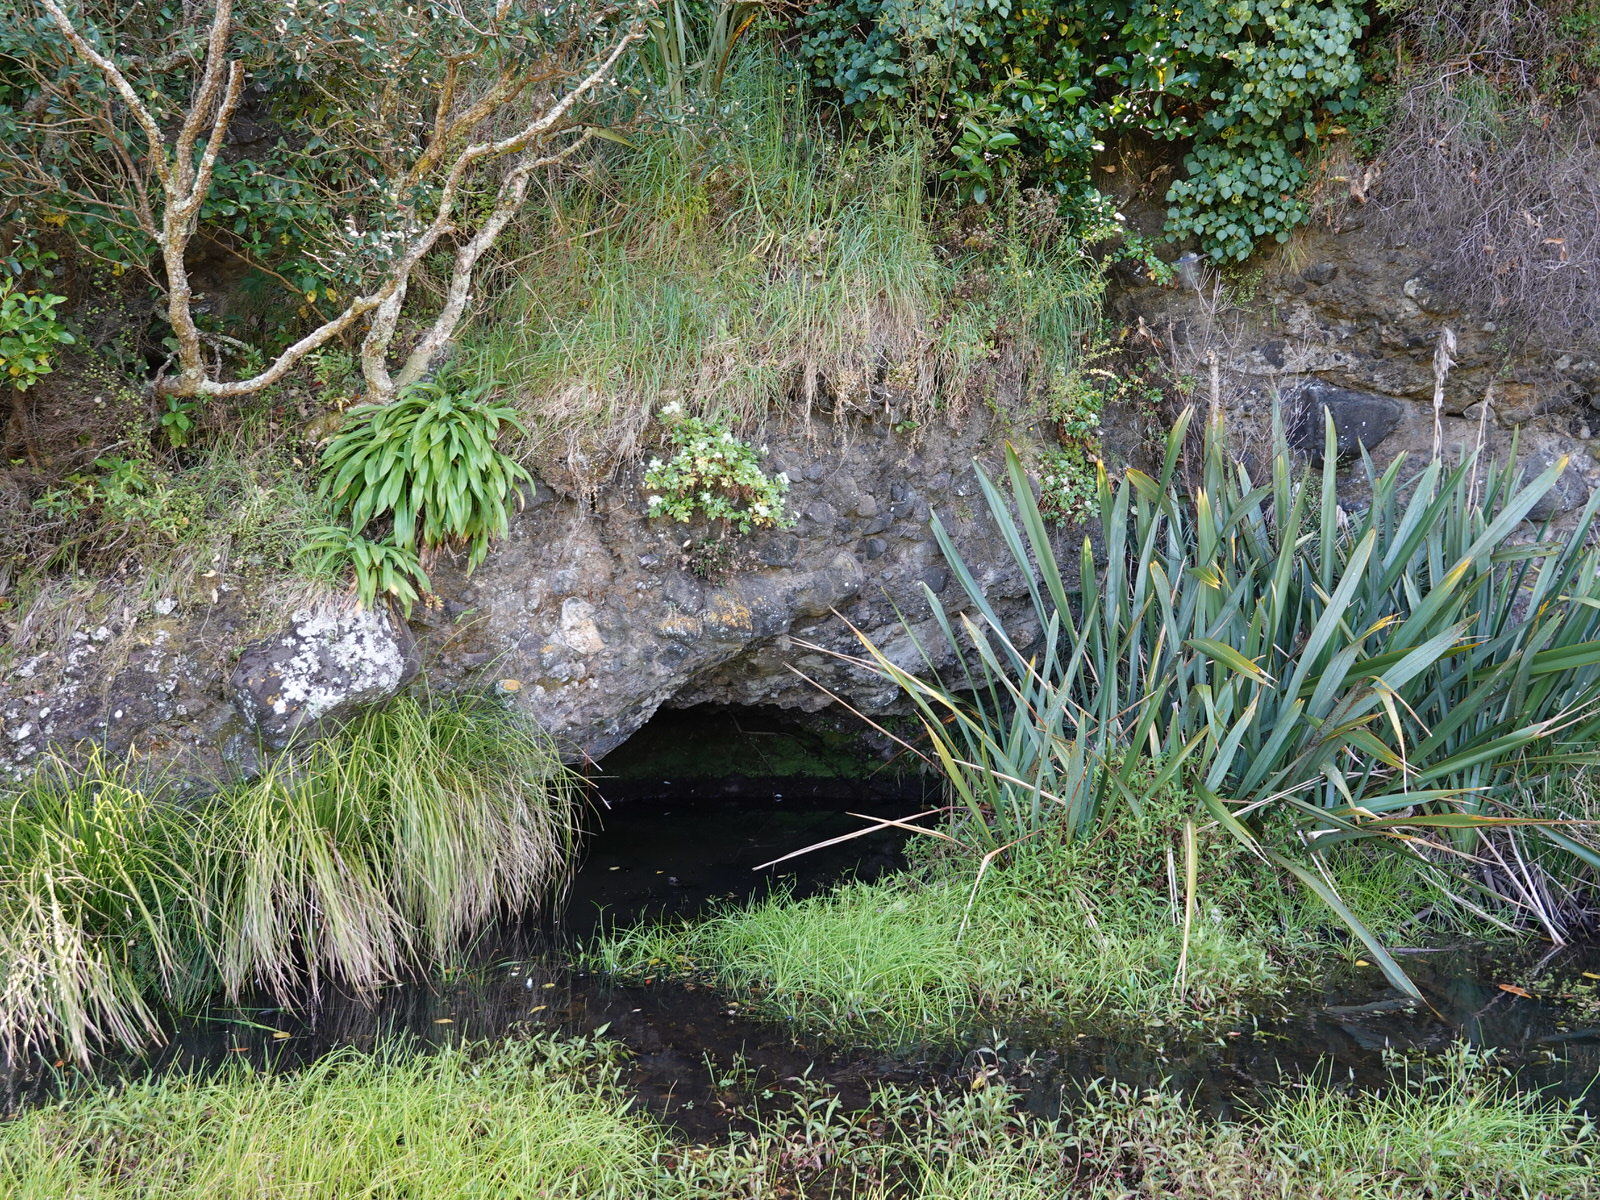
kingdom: Plantae
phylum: Tracheophyta
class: Magnoliopsida
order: Apiales
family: Apiaceae
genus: Scandia
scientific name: Scandia rosifolia
